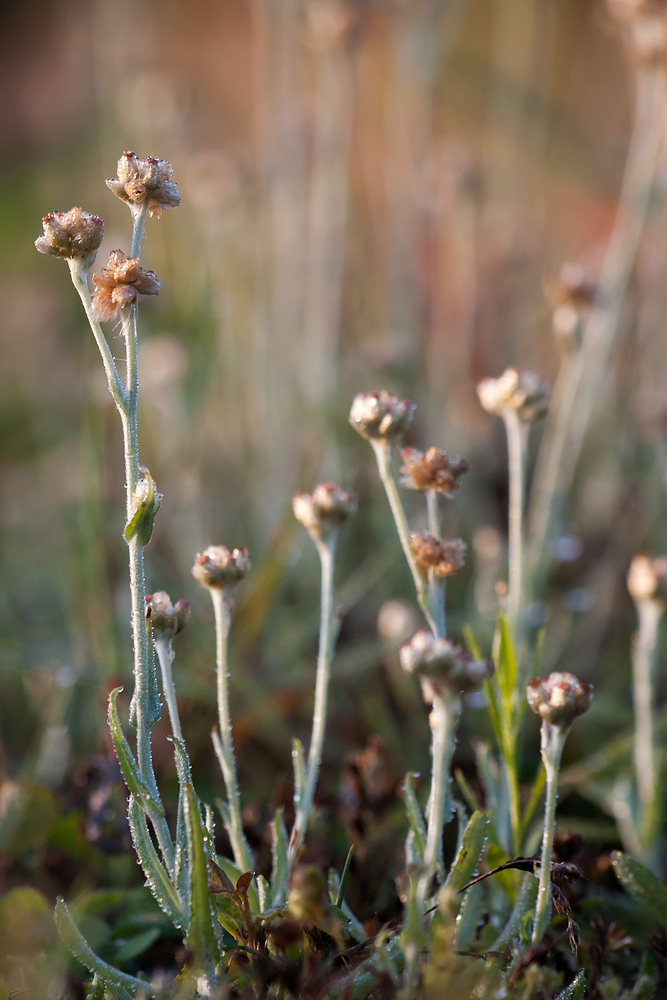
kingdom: Plantae
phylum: Tracheophyta
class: Magnoliopsida
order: Asterales
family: Asteraceae
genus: Helichrysum
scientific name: Helichrysum luteoalbum
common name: Daisy
